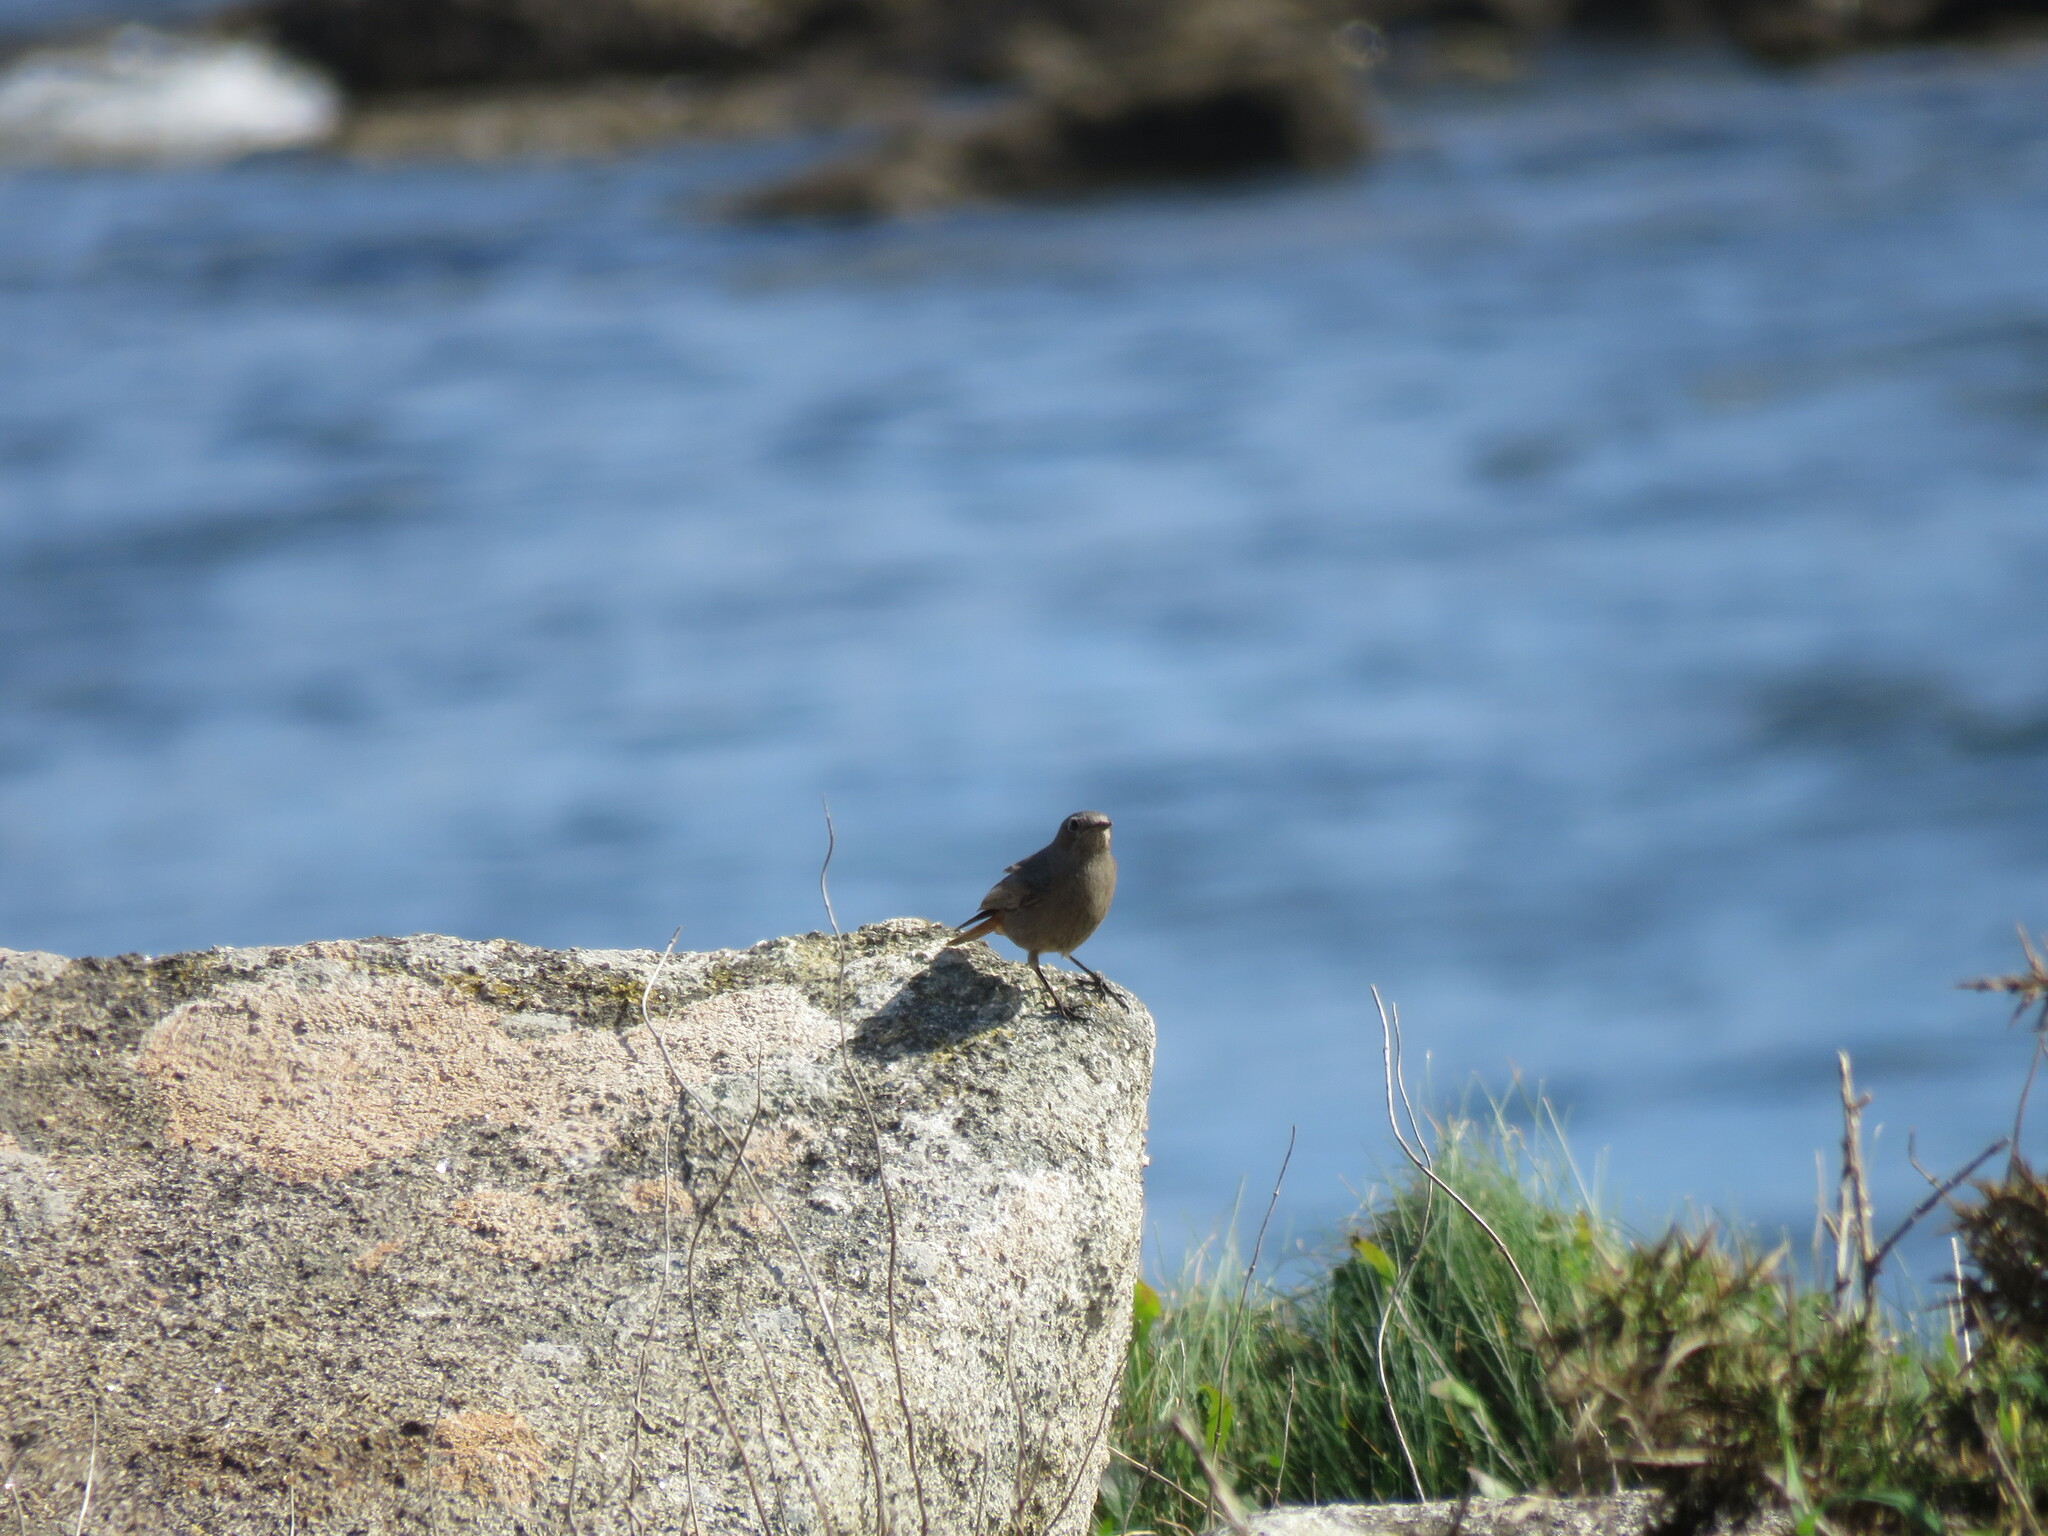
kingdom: Animalia
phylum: Chordata
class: Aves
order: Passeriformes
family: Muscicapidae
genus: Phoenicurus
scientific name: Phoenicurus ochruros
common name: Black redstart
